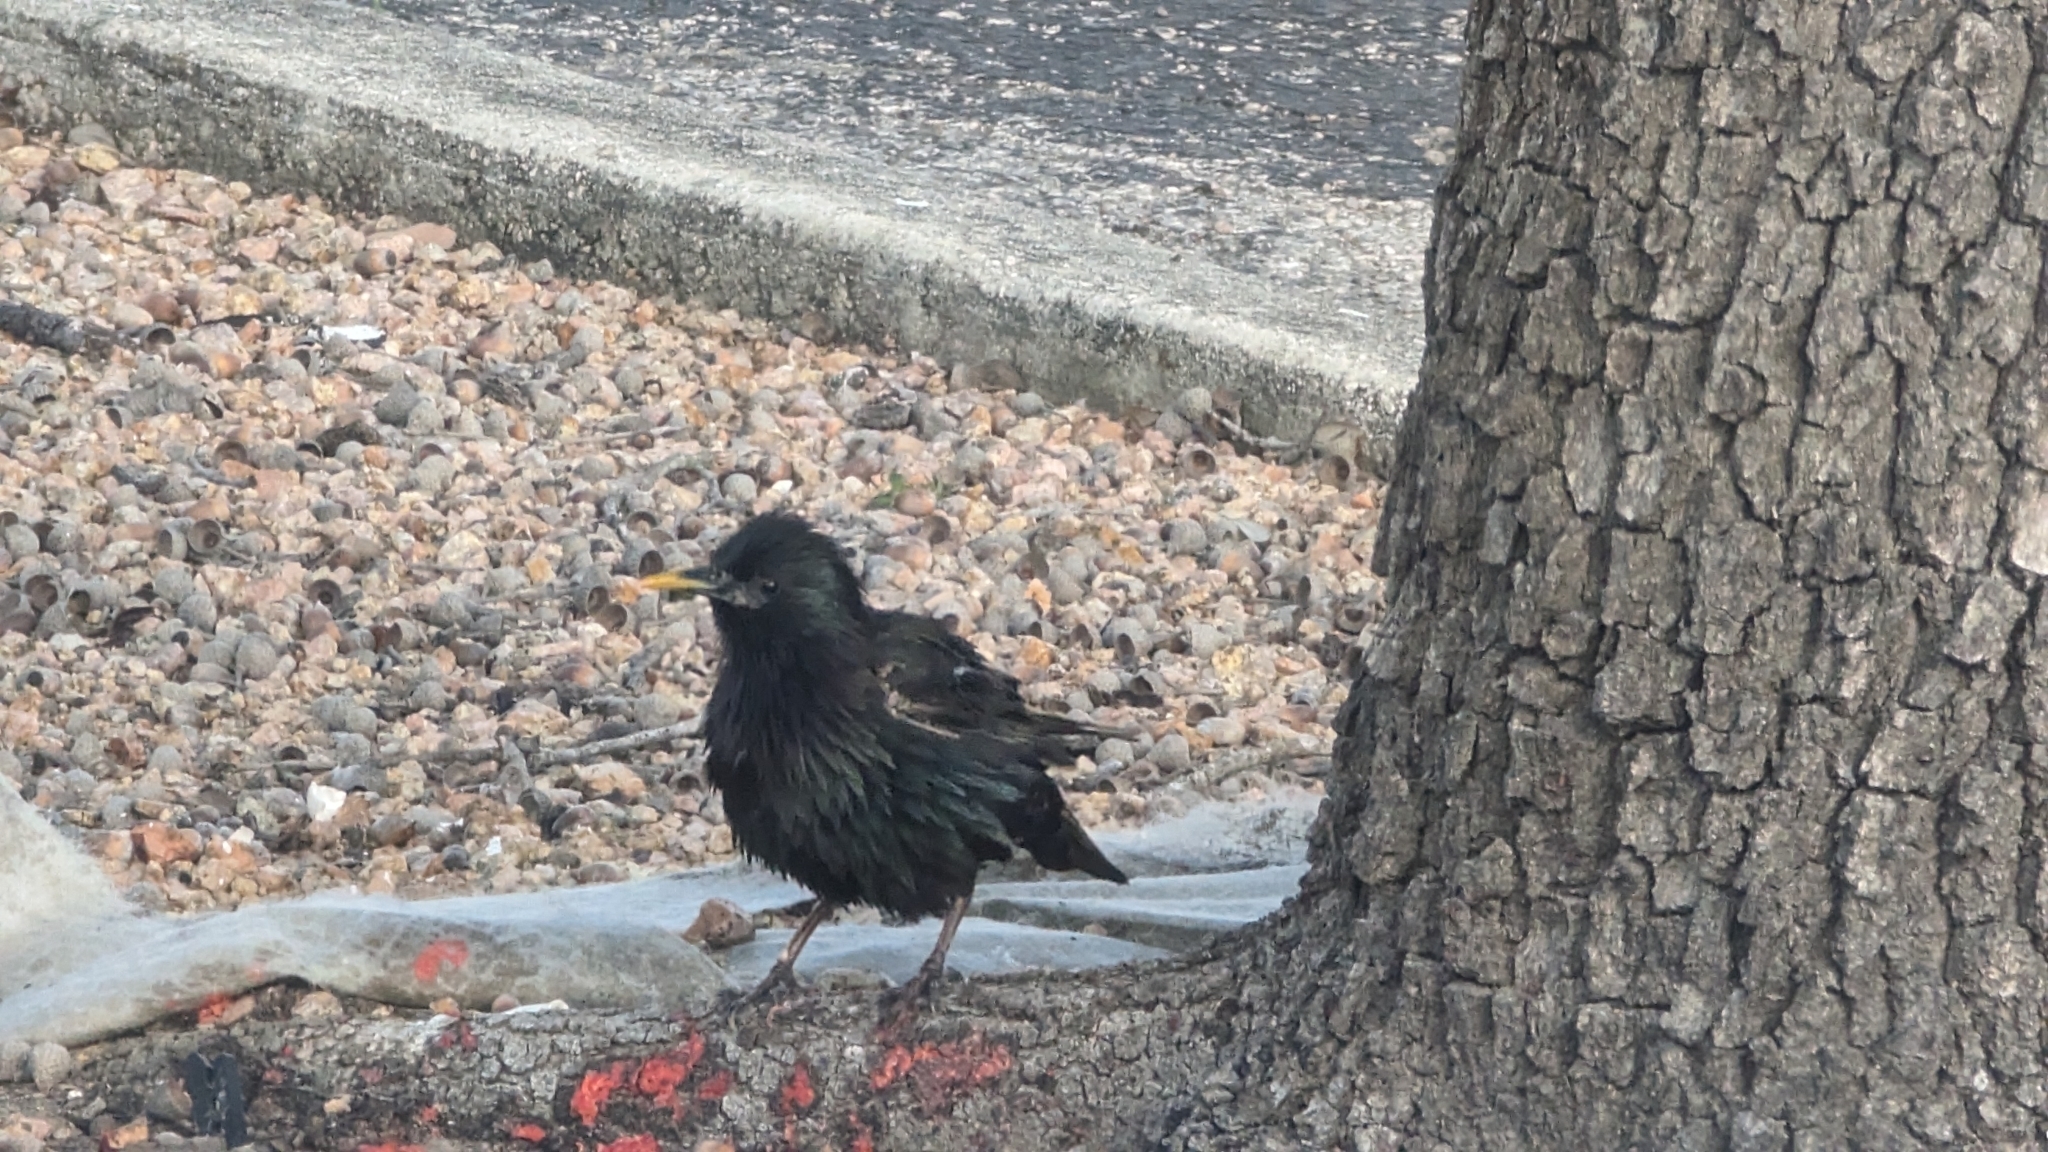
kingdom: Animalia
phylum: Chordata
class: Aves
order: Passeriformes
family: Sturnidae
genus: Sturnus
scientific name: Sturnus vulgaris
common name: Common starling
